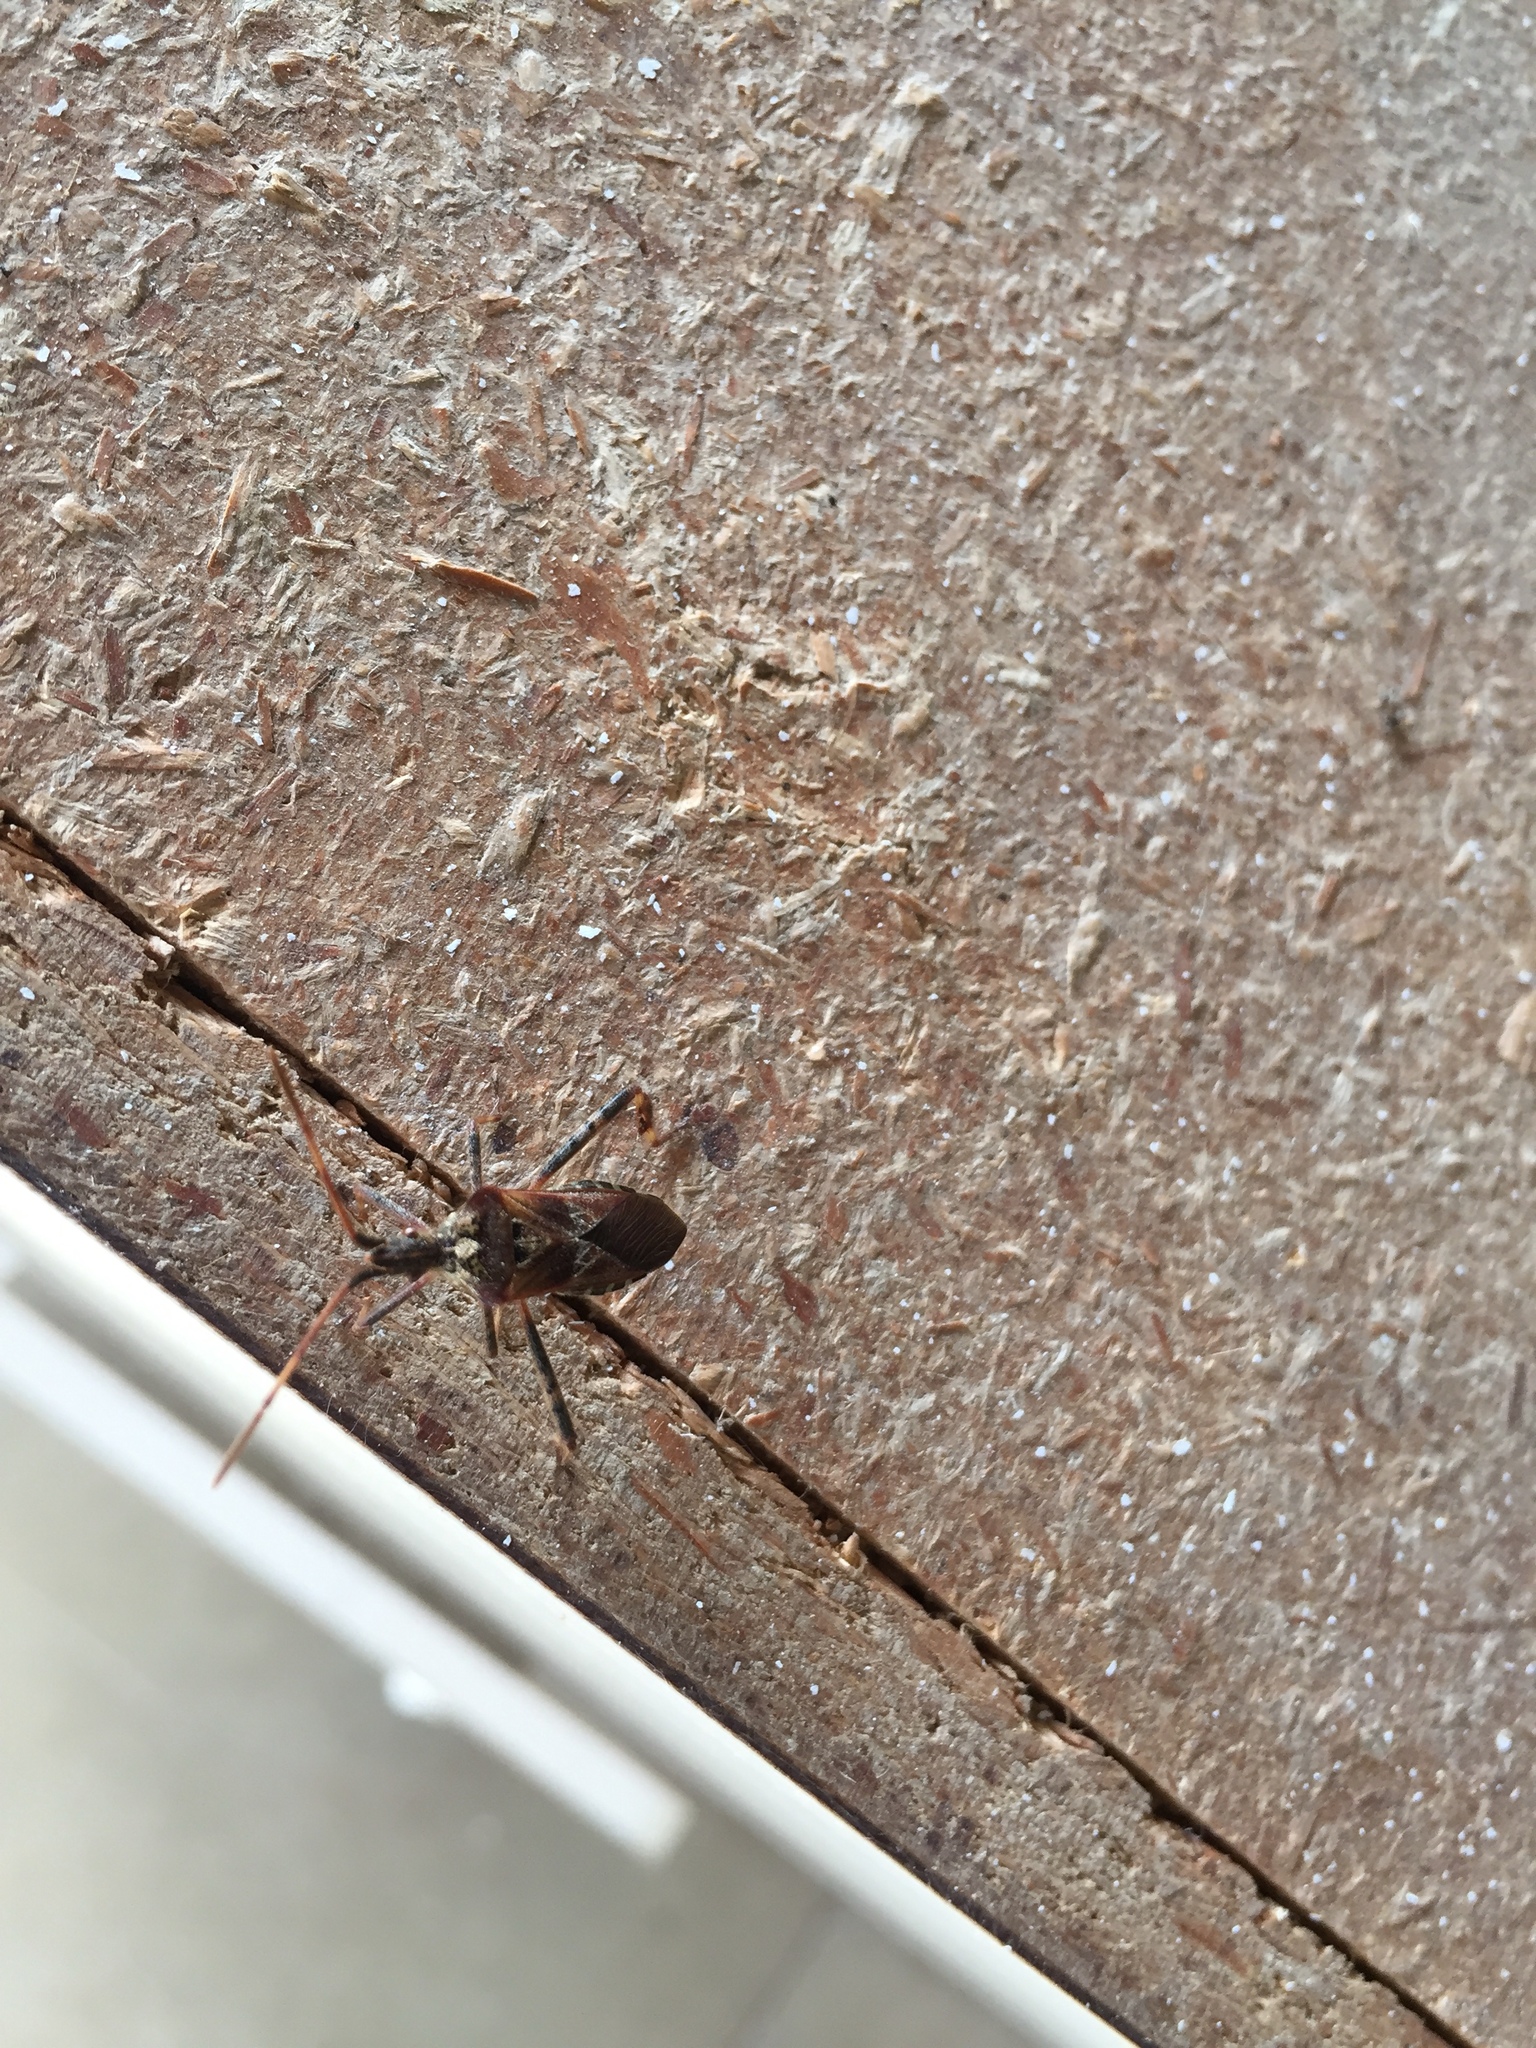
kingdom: Animalia
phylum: Arthropoda
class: Insecta
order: Hemiptera
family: Coreidae
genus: Leptoglossus
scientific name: Leptoglossus occidentalis
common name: Western conifer-seed bug
